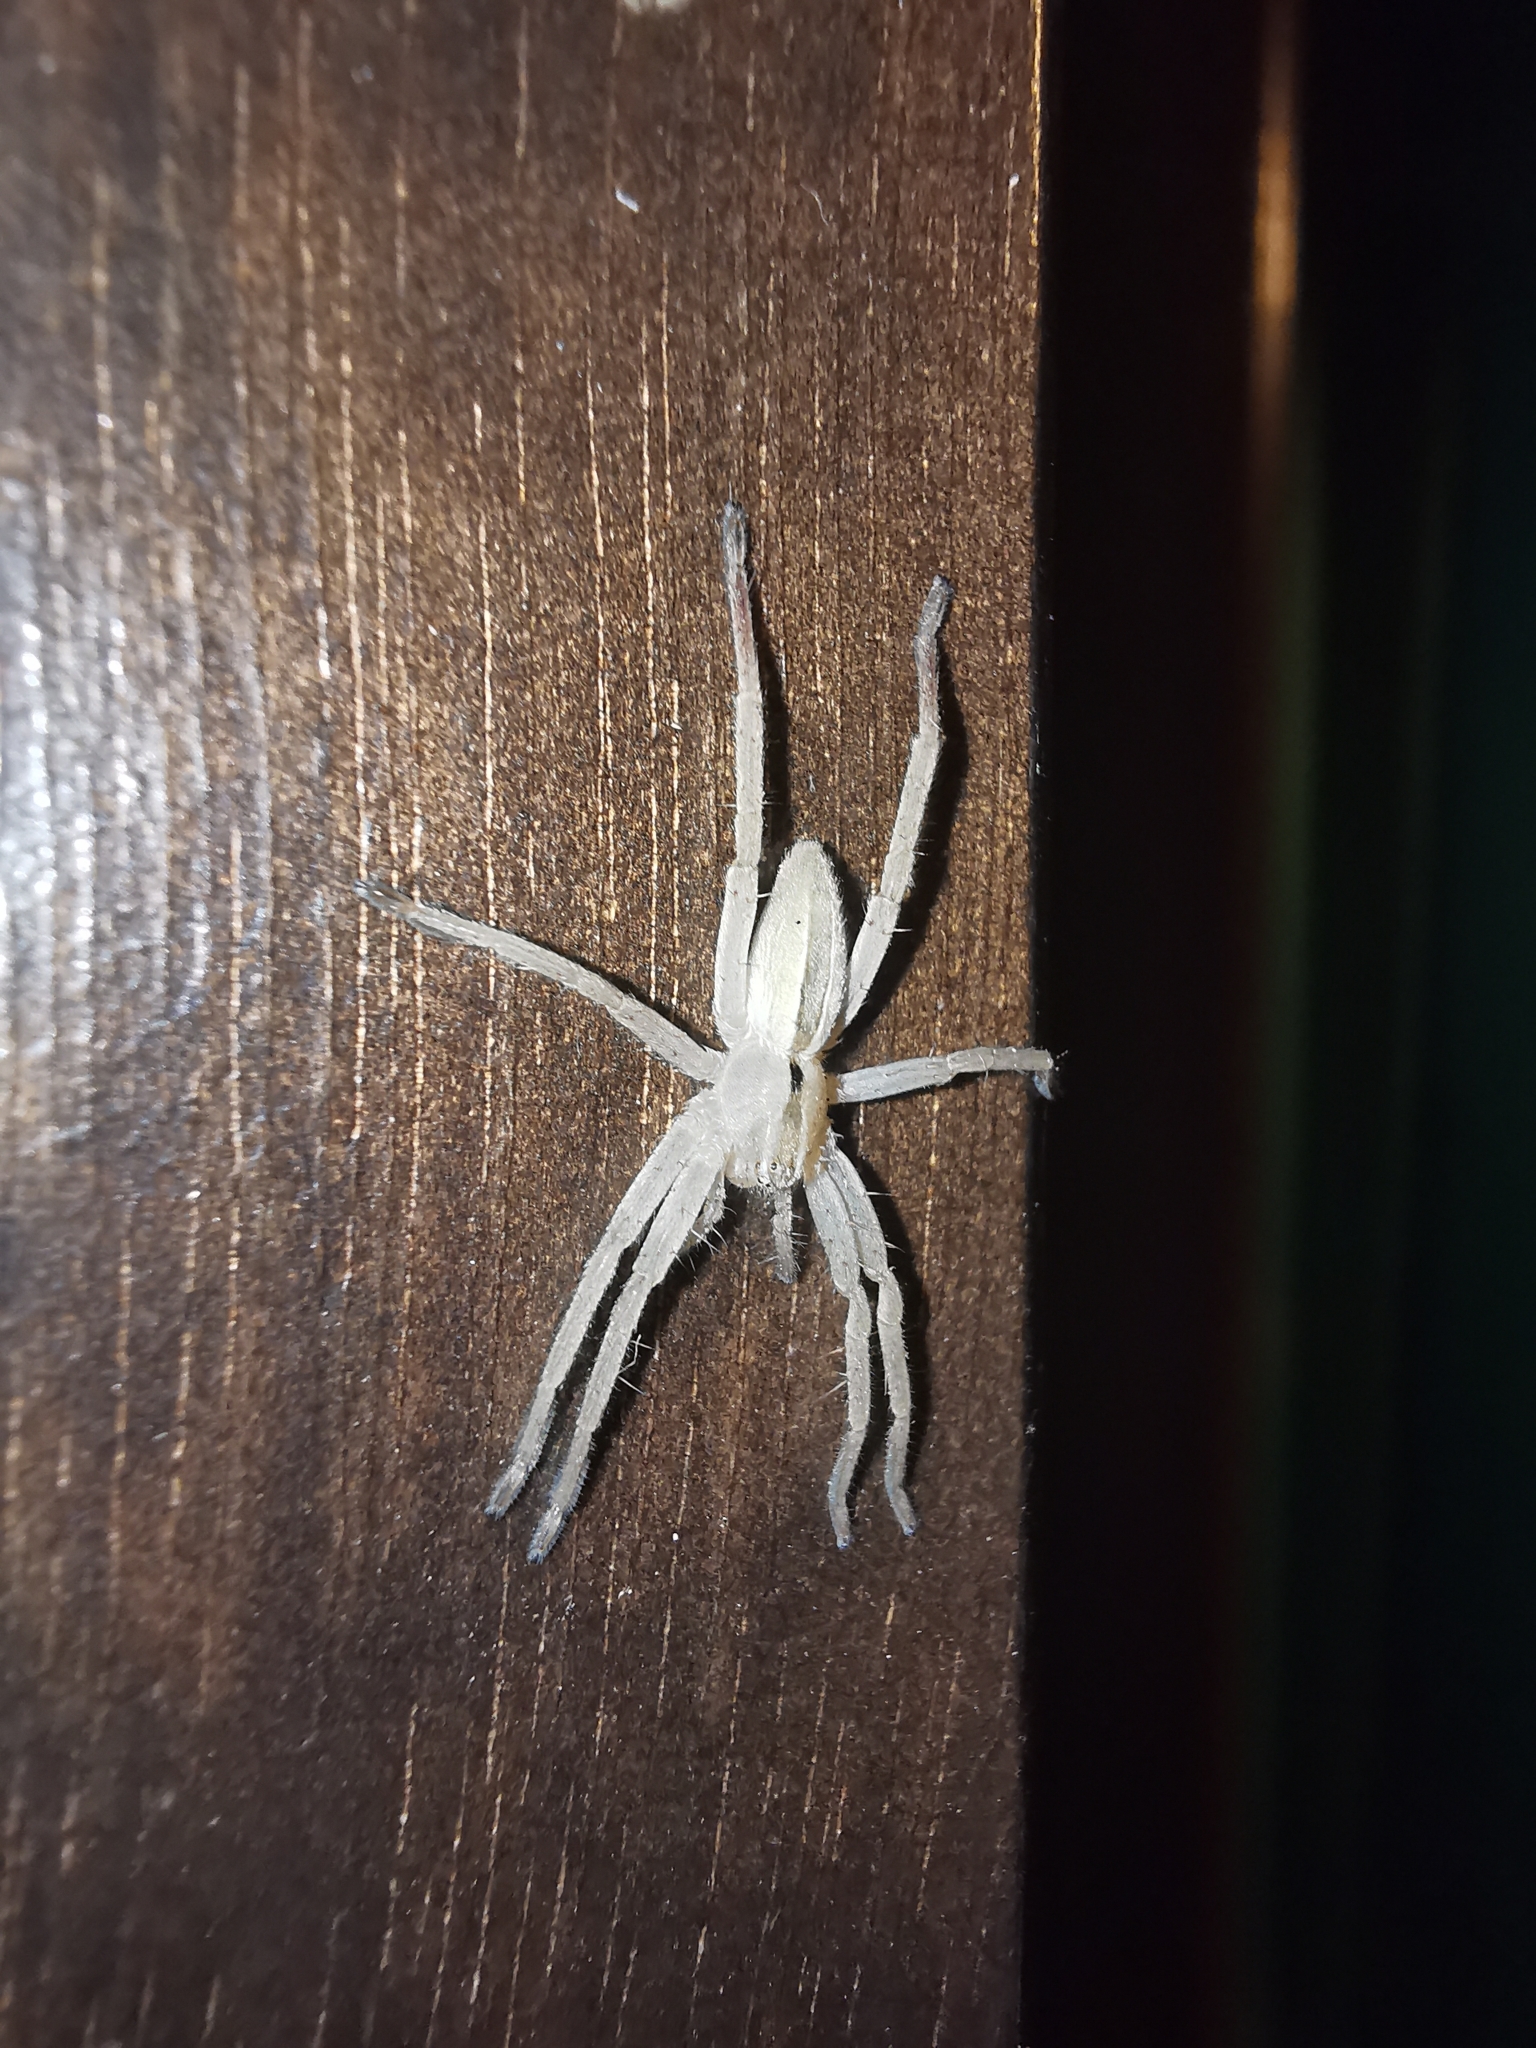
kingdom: Animalia
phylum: Arthropoda
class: Arachnida
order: Araneae
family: Sparassidae
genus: Micrommata
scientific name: Micrommata ligurina
